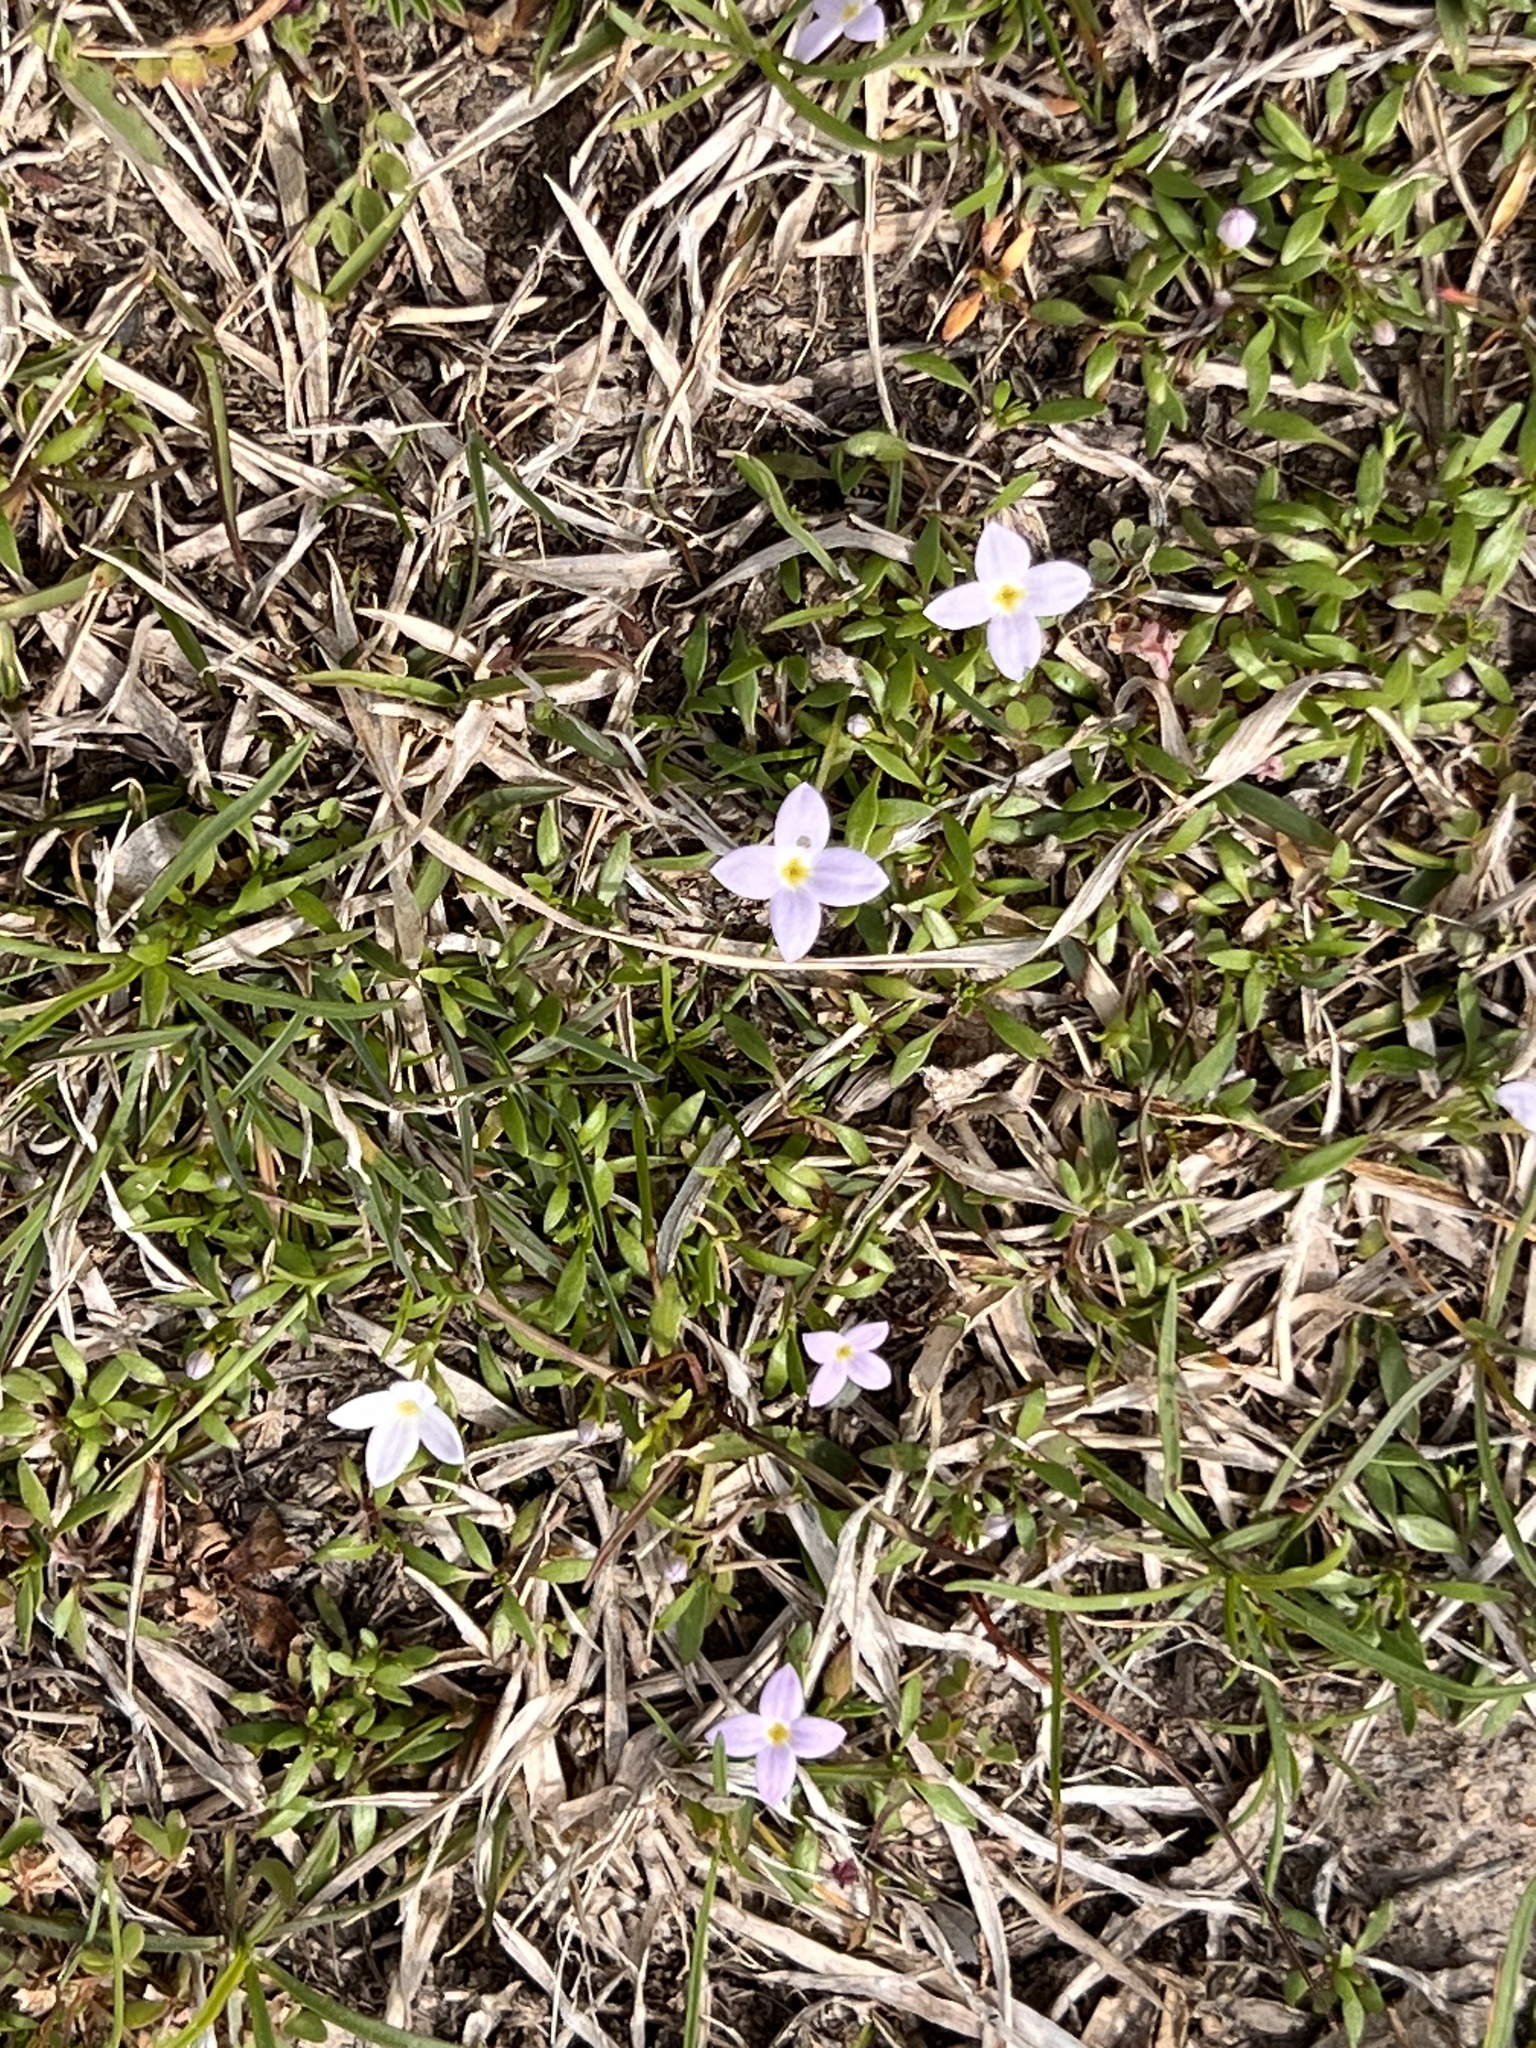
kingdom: Plantae
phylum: Tracheophyta
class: Magnoliopsida
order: Gentianales
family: Rubiaceae
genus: Houstonia
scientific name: Houstonia rosea
